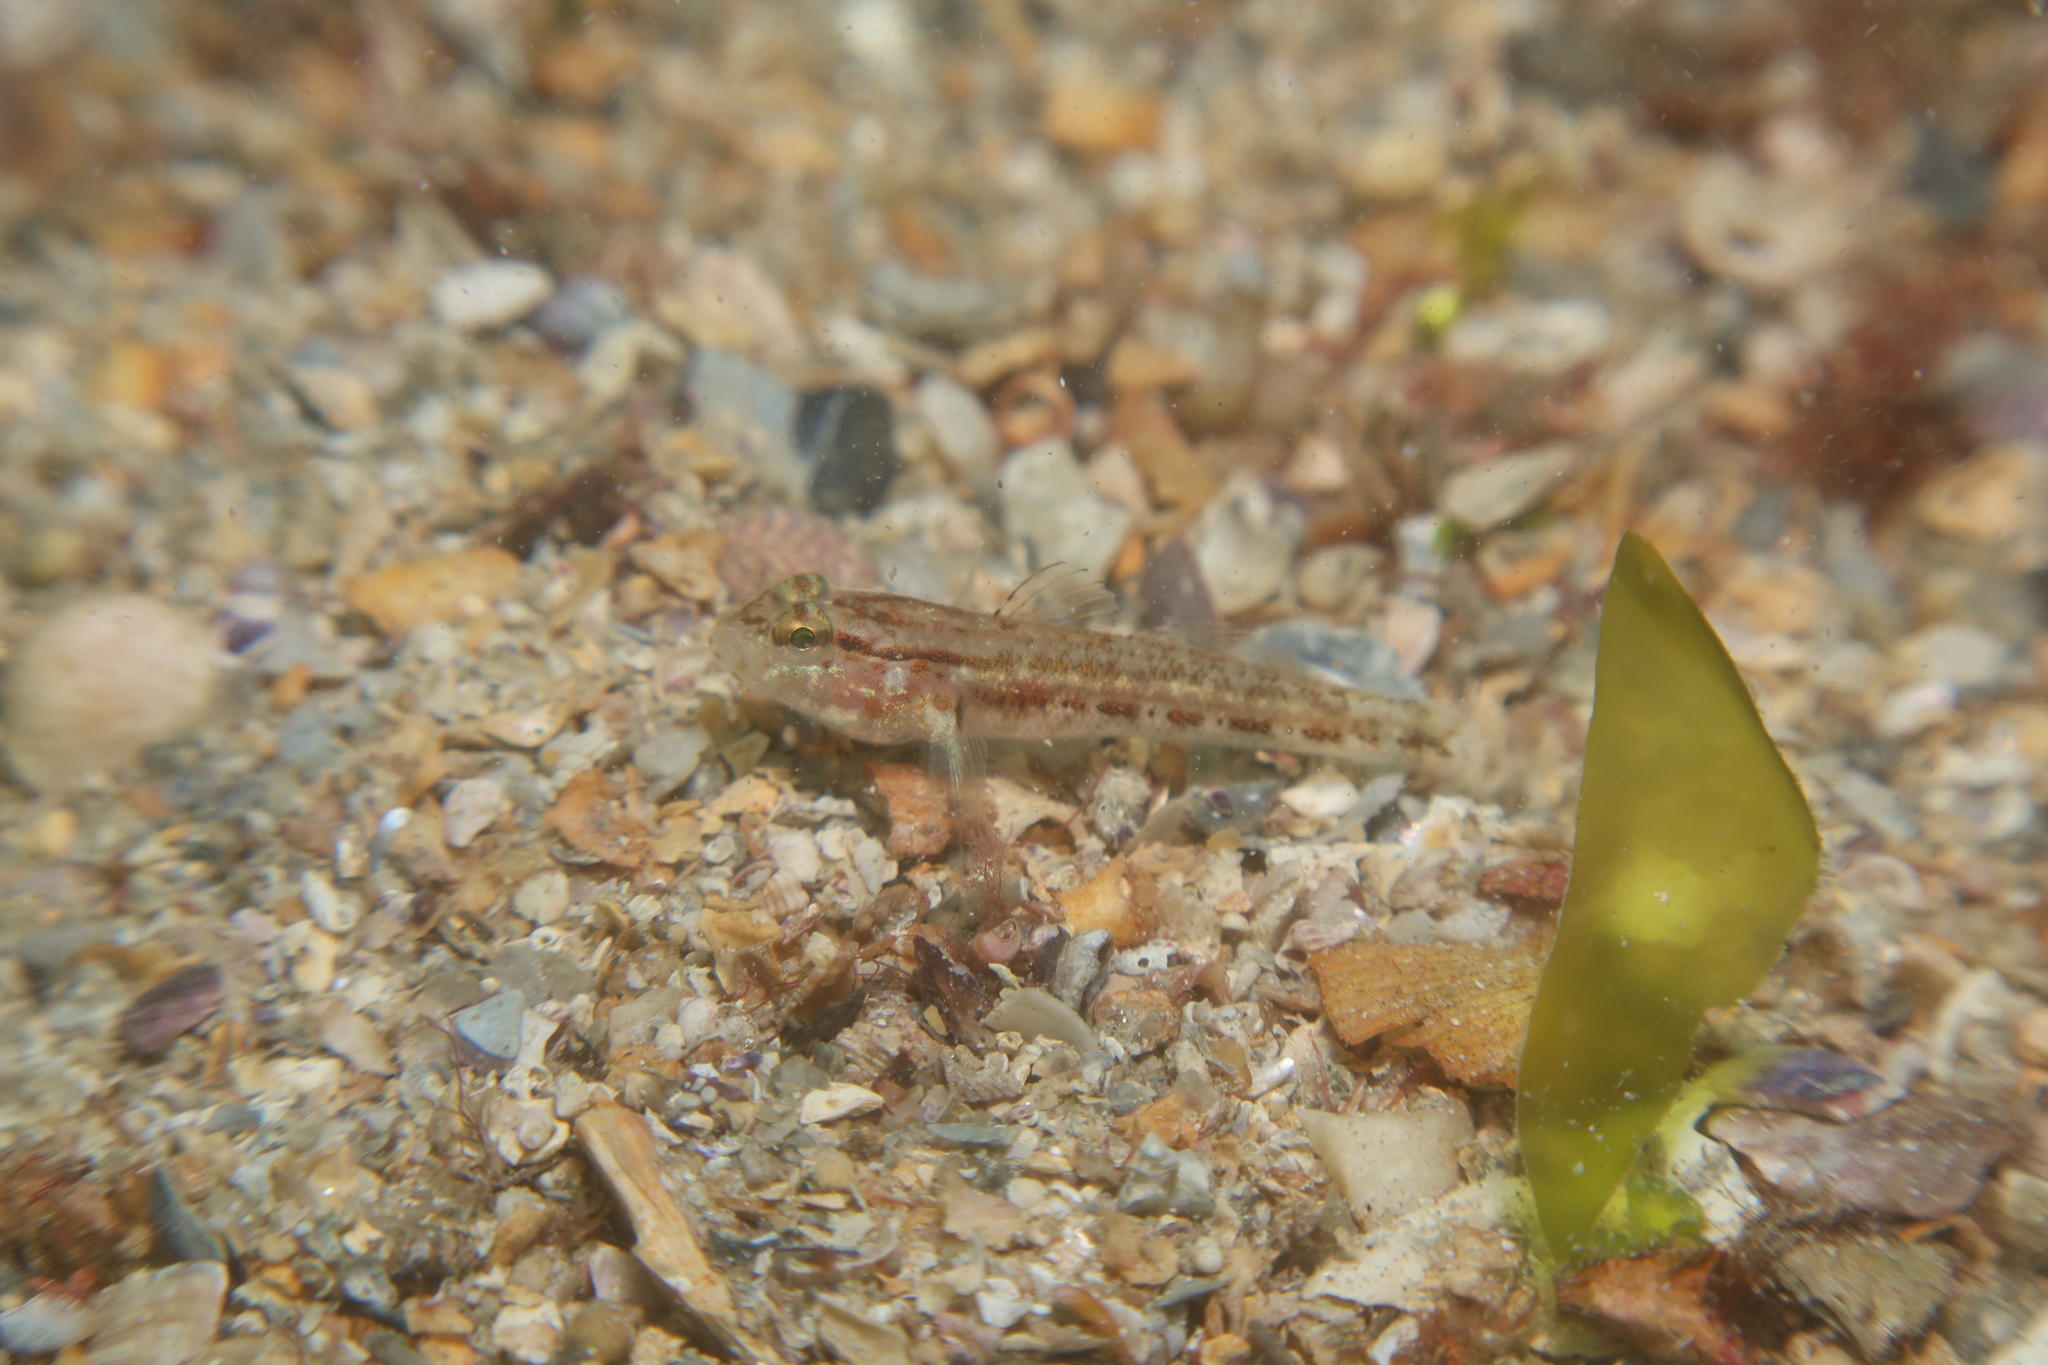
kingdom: Animalia
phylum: Chordata
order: Perciformes
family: Gobiidae
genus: Gobius
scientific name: Gobius gasteveni
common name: Steven's goby
